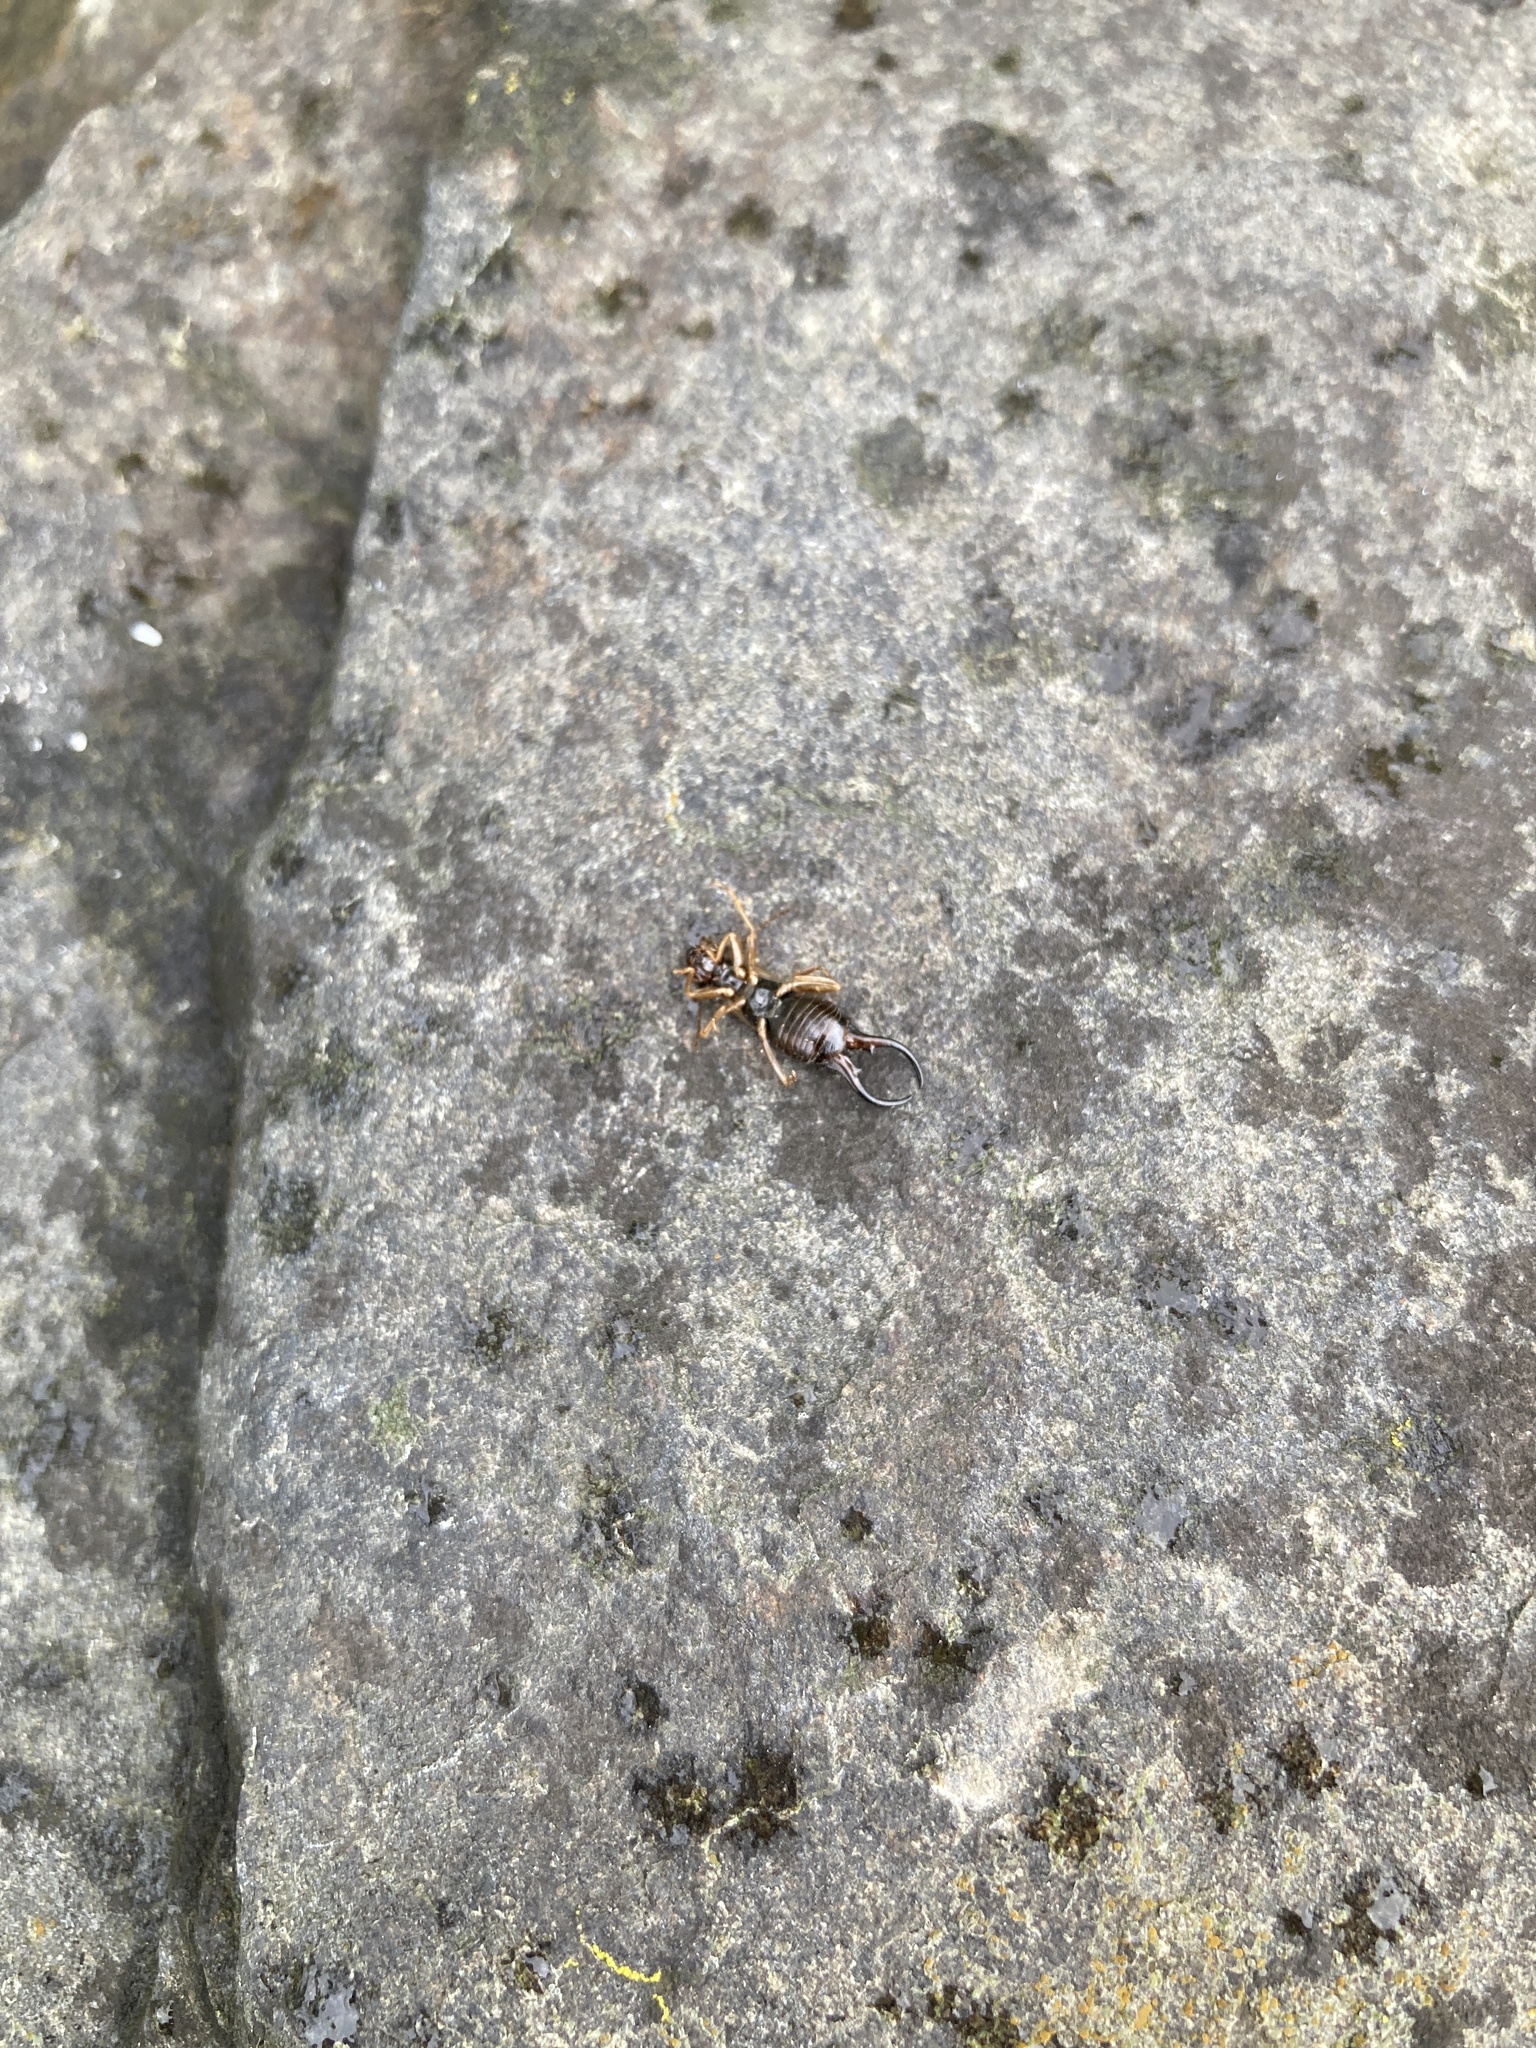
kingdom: Animalia
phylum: Arthropoda
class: Insecta
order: Dermaptera
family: Forficulidae
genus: Forficula
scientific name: Forficula
